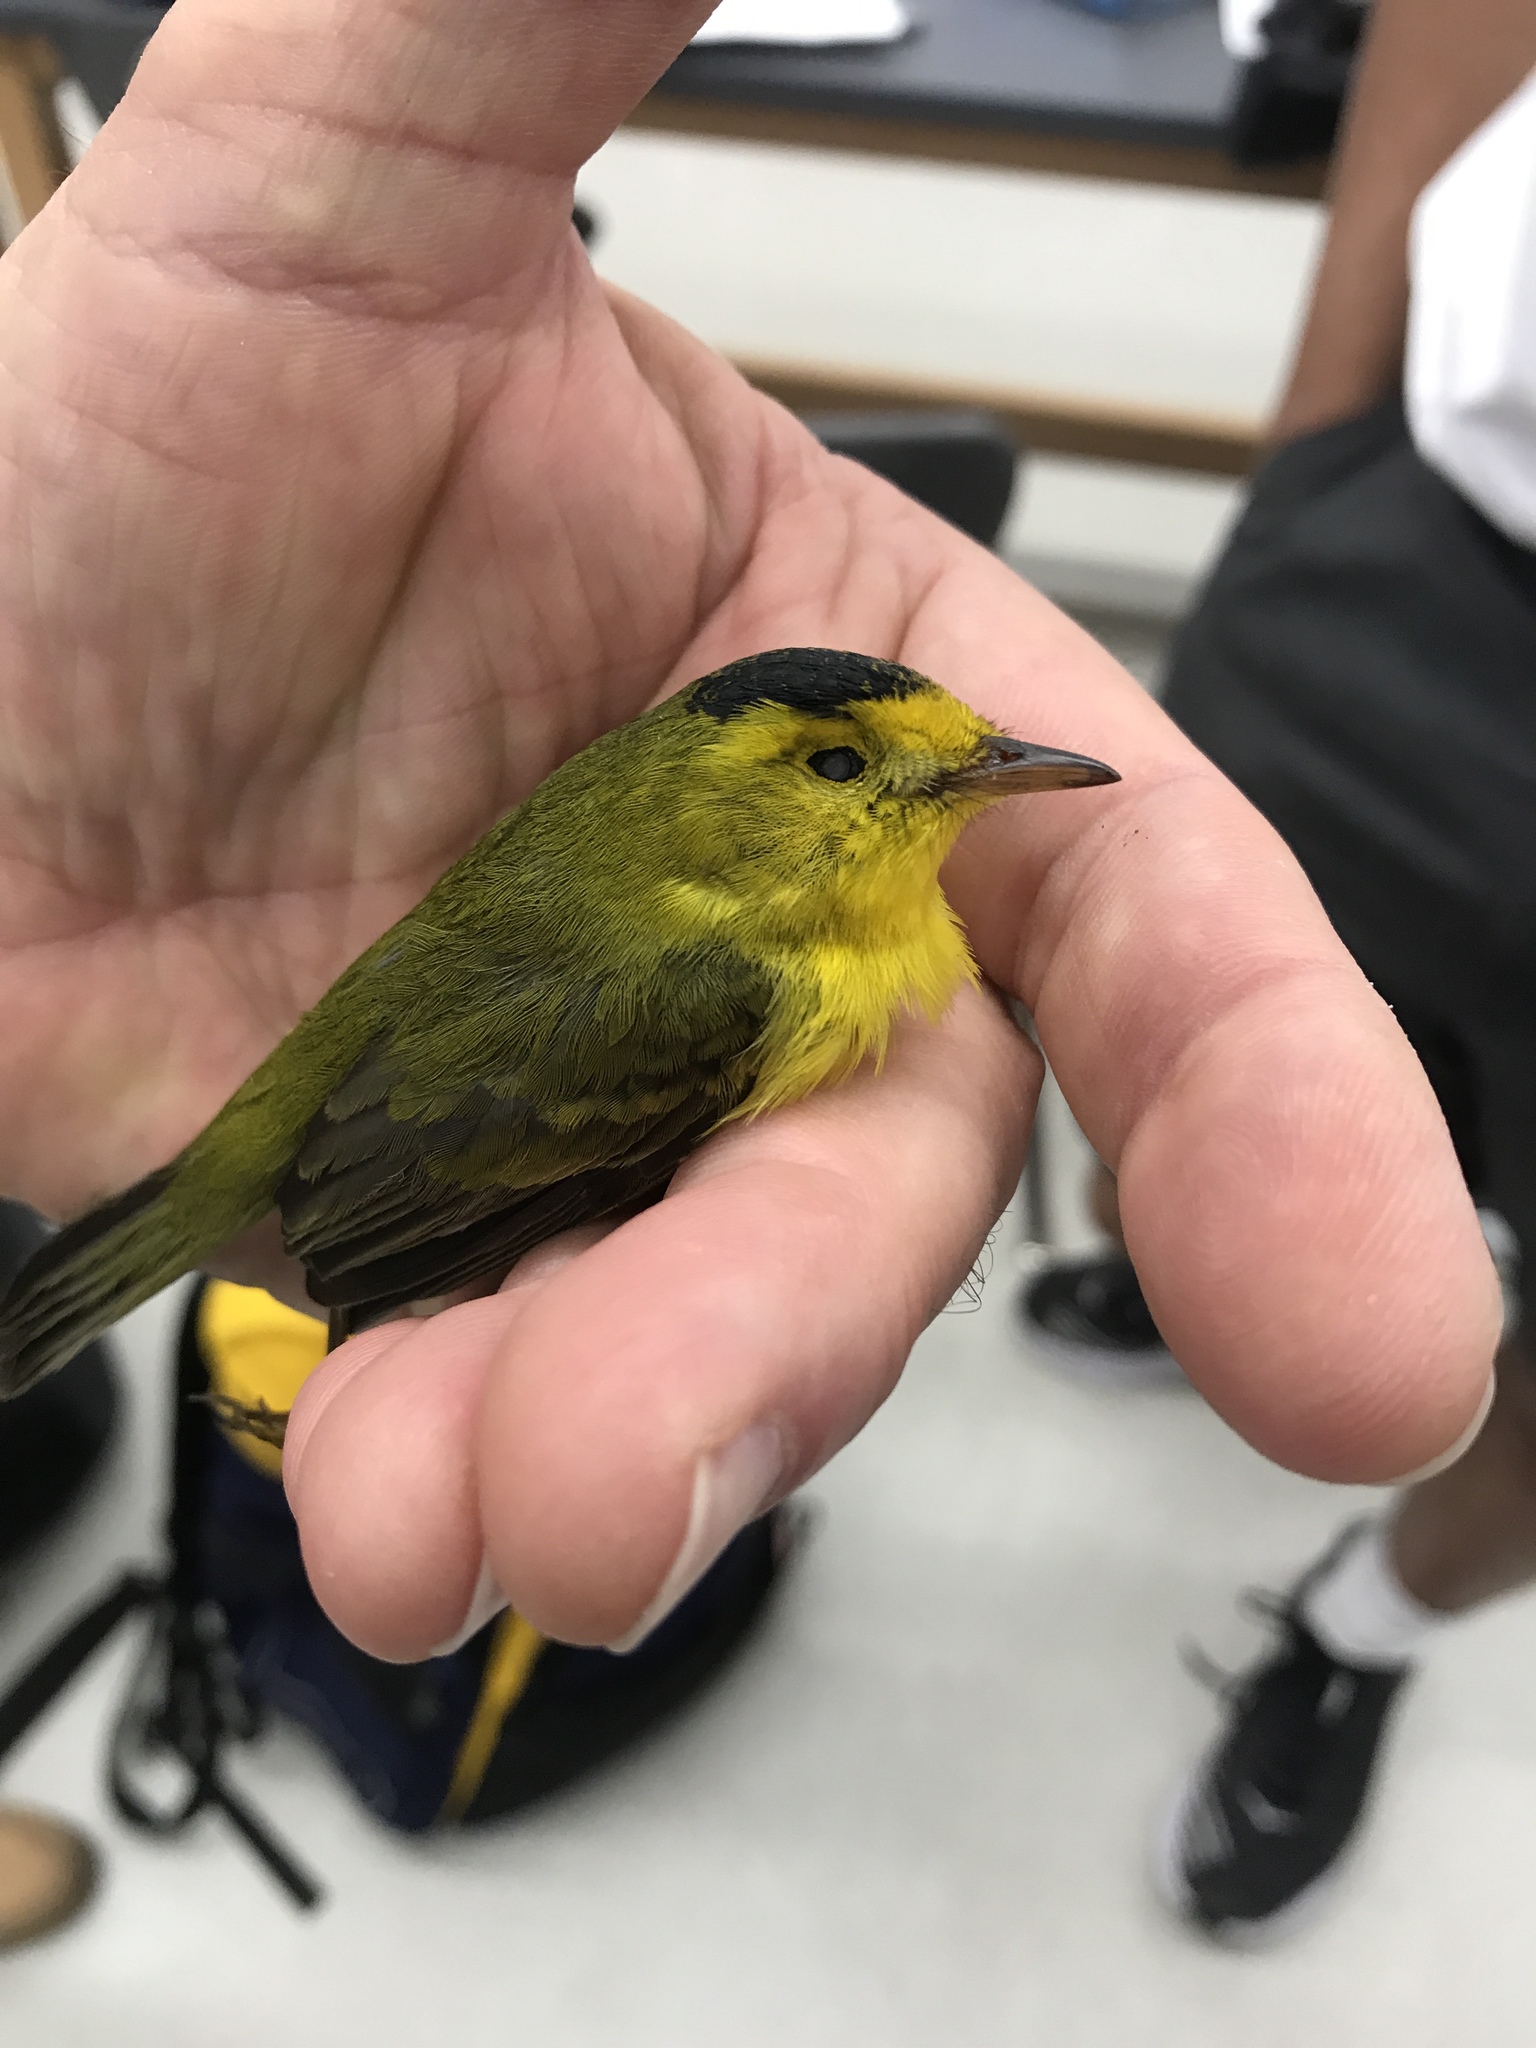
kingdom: Animalia
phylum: Chordata
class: Aves
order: Passeriformes
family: Parulidae
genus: Cardellina
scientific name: Cardellina pusilla
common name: Wilson's warbler
